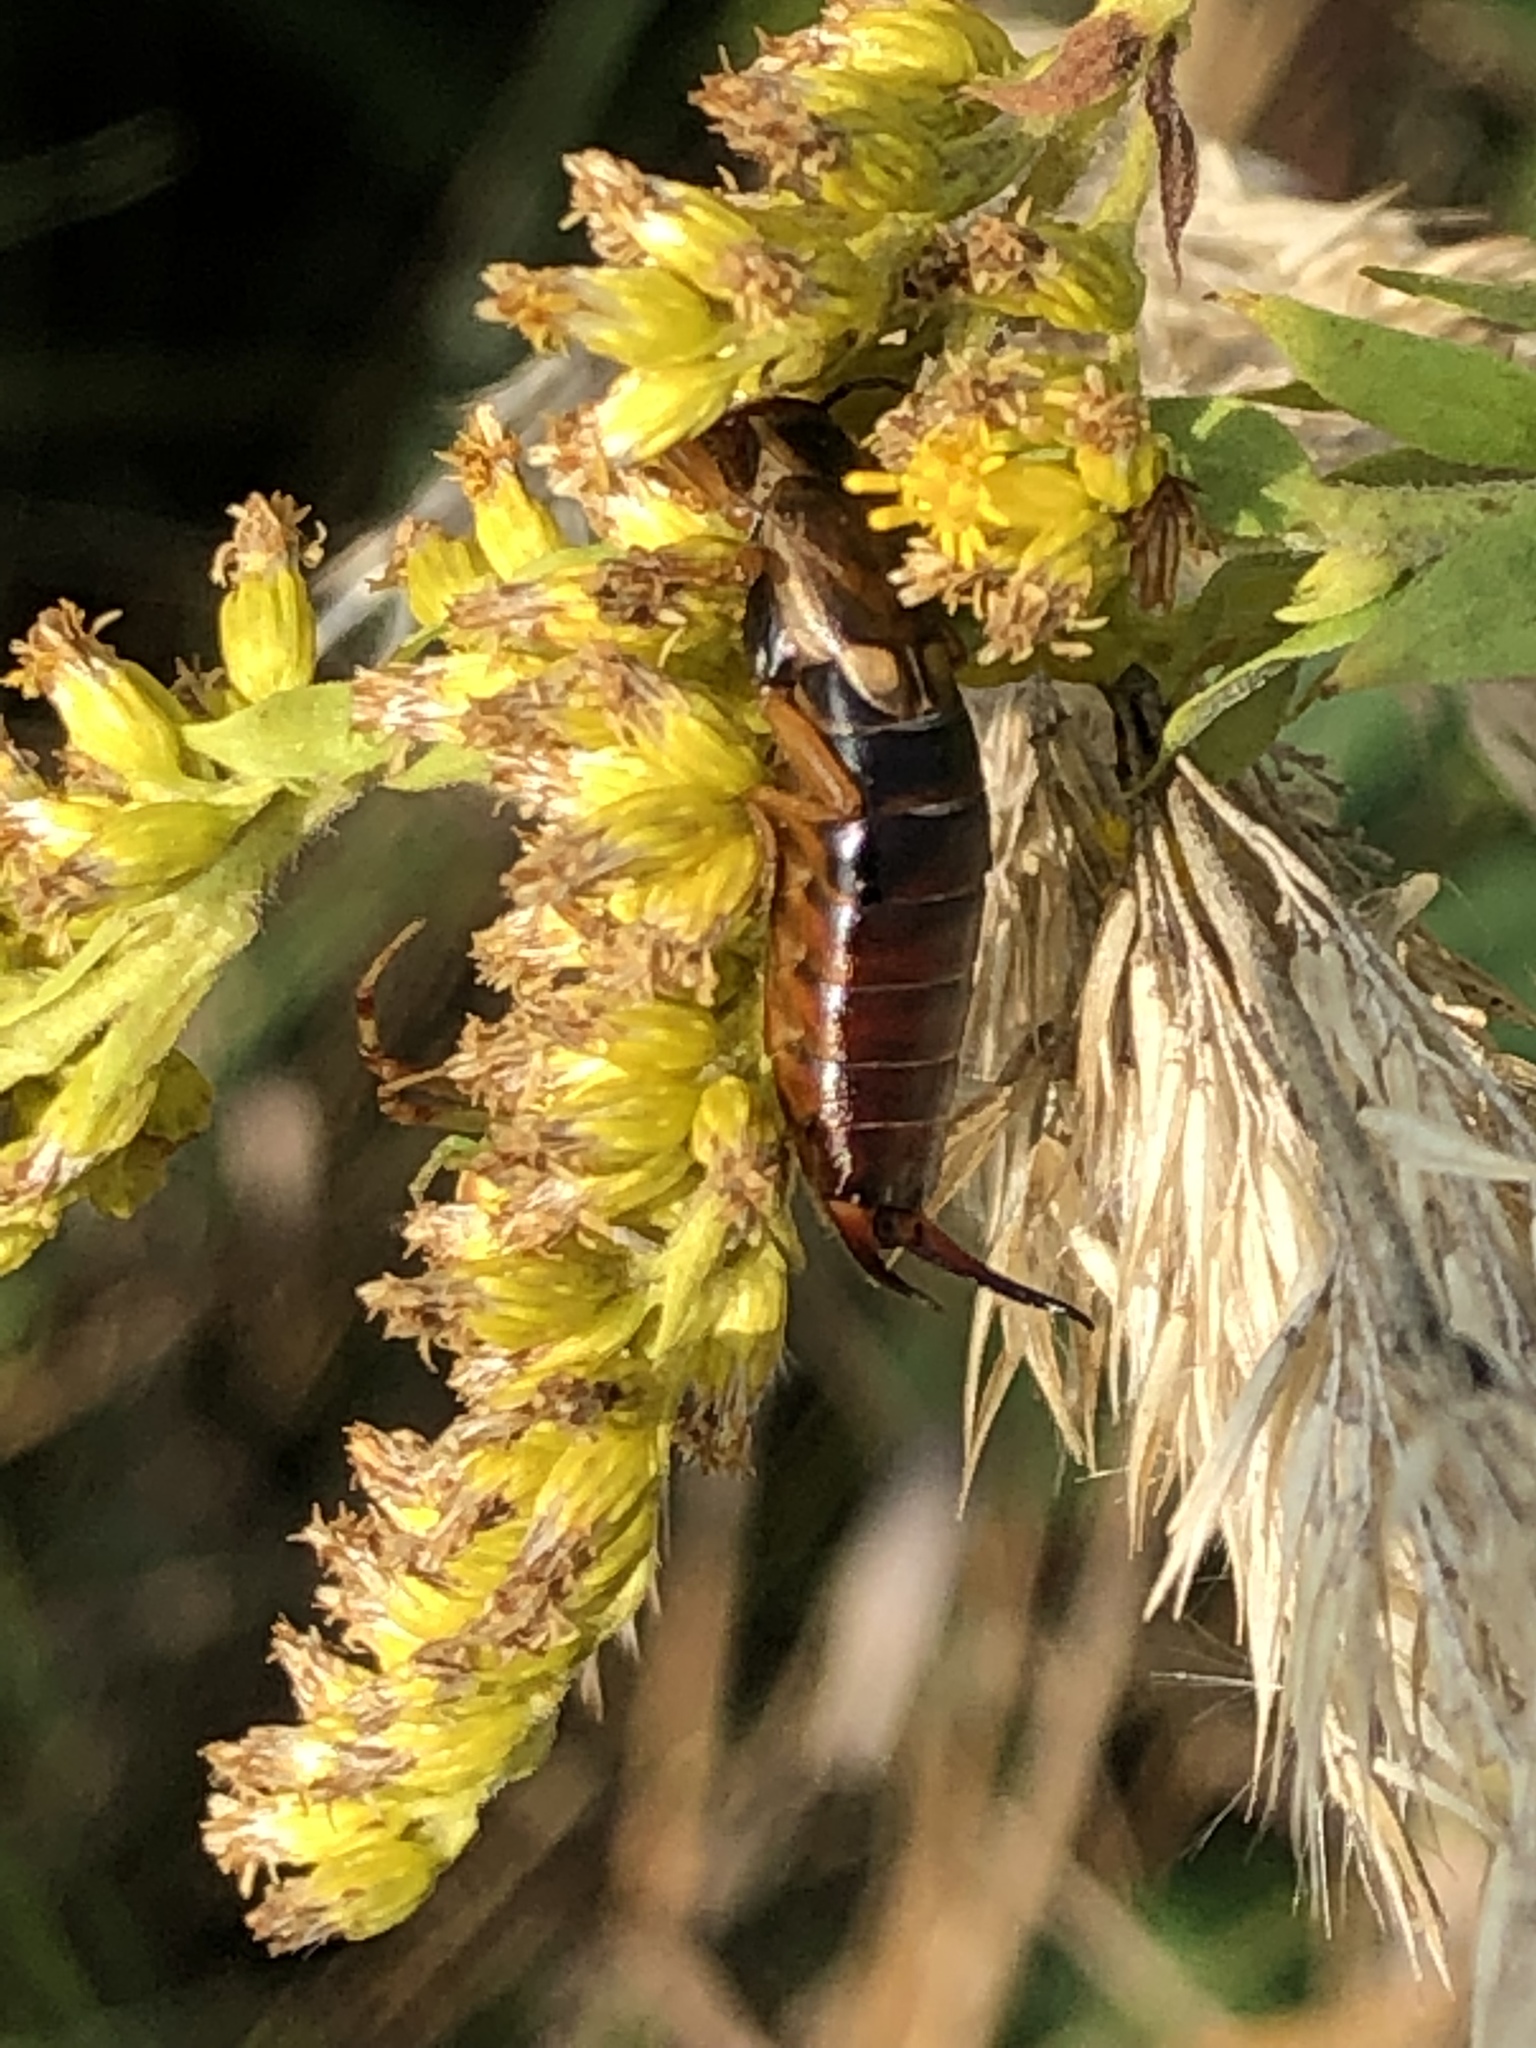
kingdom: Animalia
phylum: Arthropoda
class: Insecta
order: Dermaptera
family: Forficulidae
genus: Forficula
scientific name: Forficula
